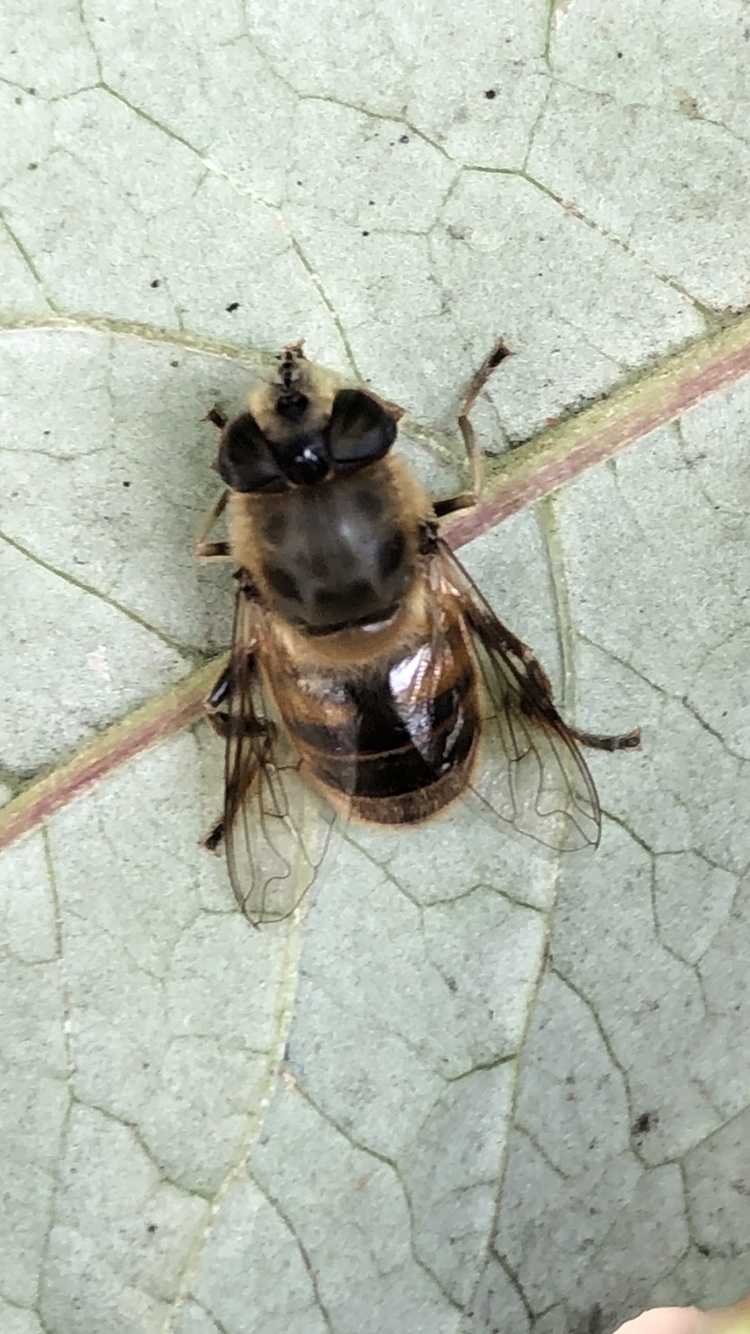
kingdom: Animalia
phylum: Arthropoda
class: Insecta
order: Diptera
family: Syrphidae
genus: Eristalis
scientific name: Eristalis tenax
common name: Drone fly
